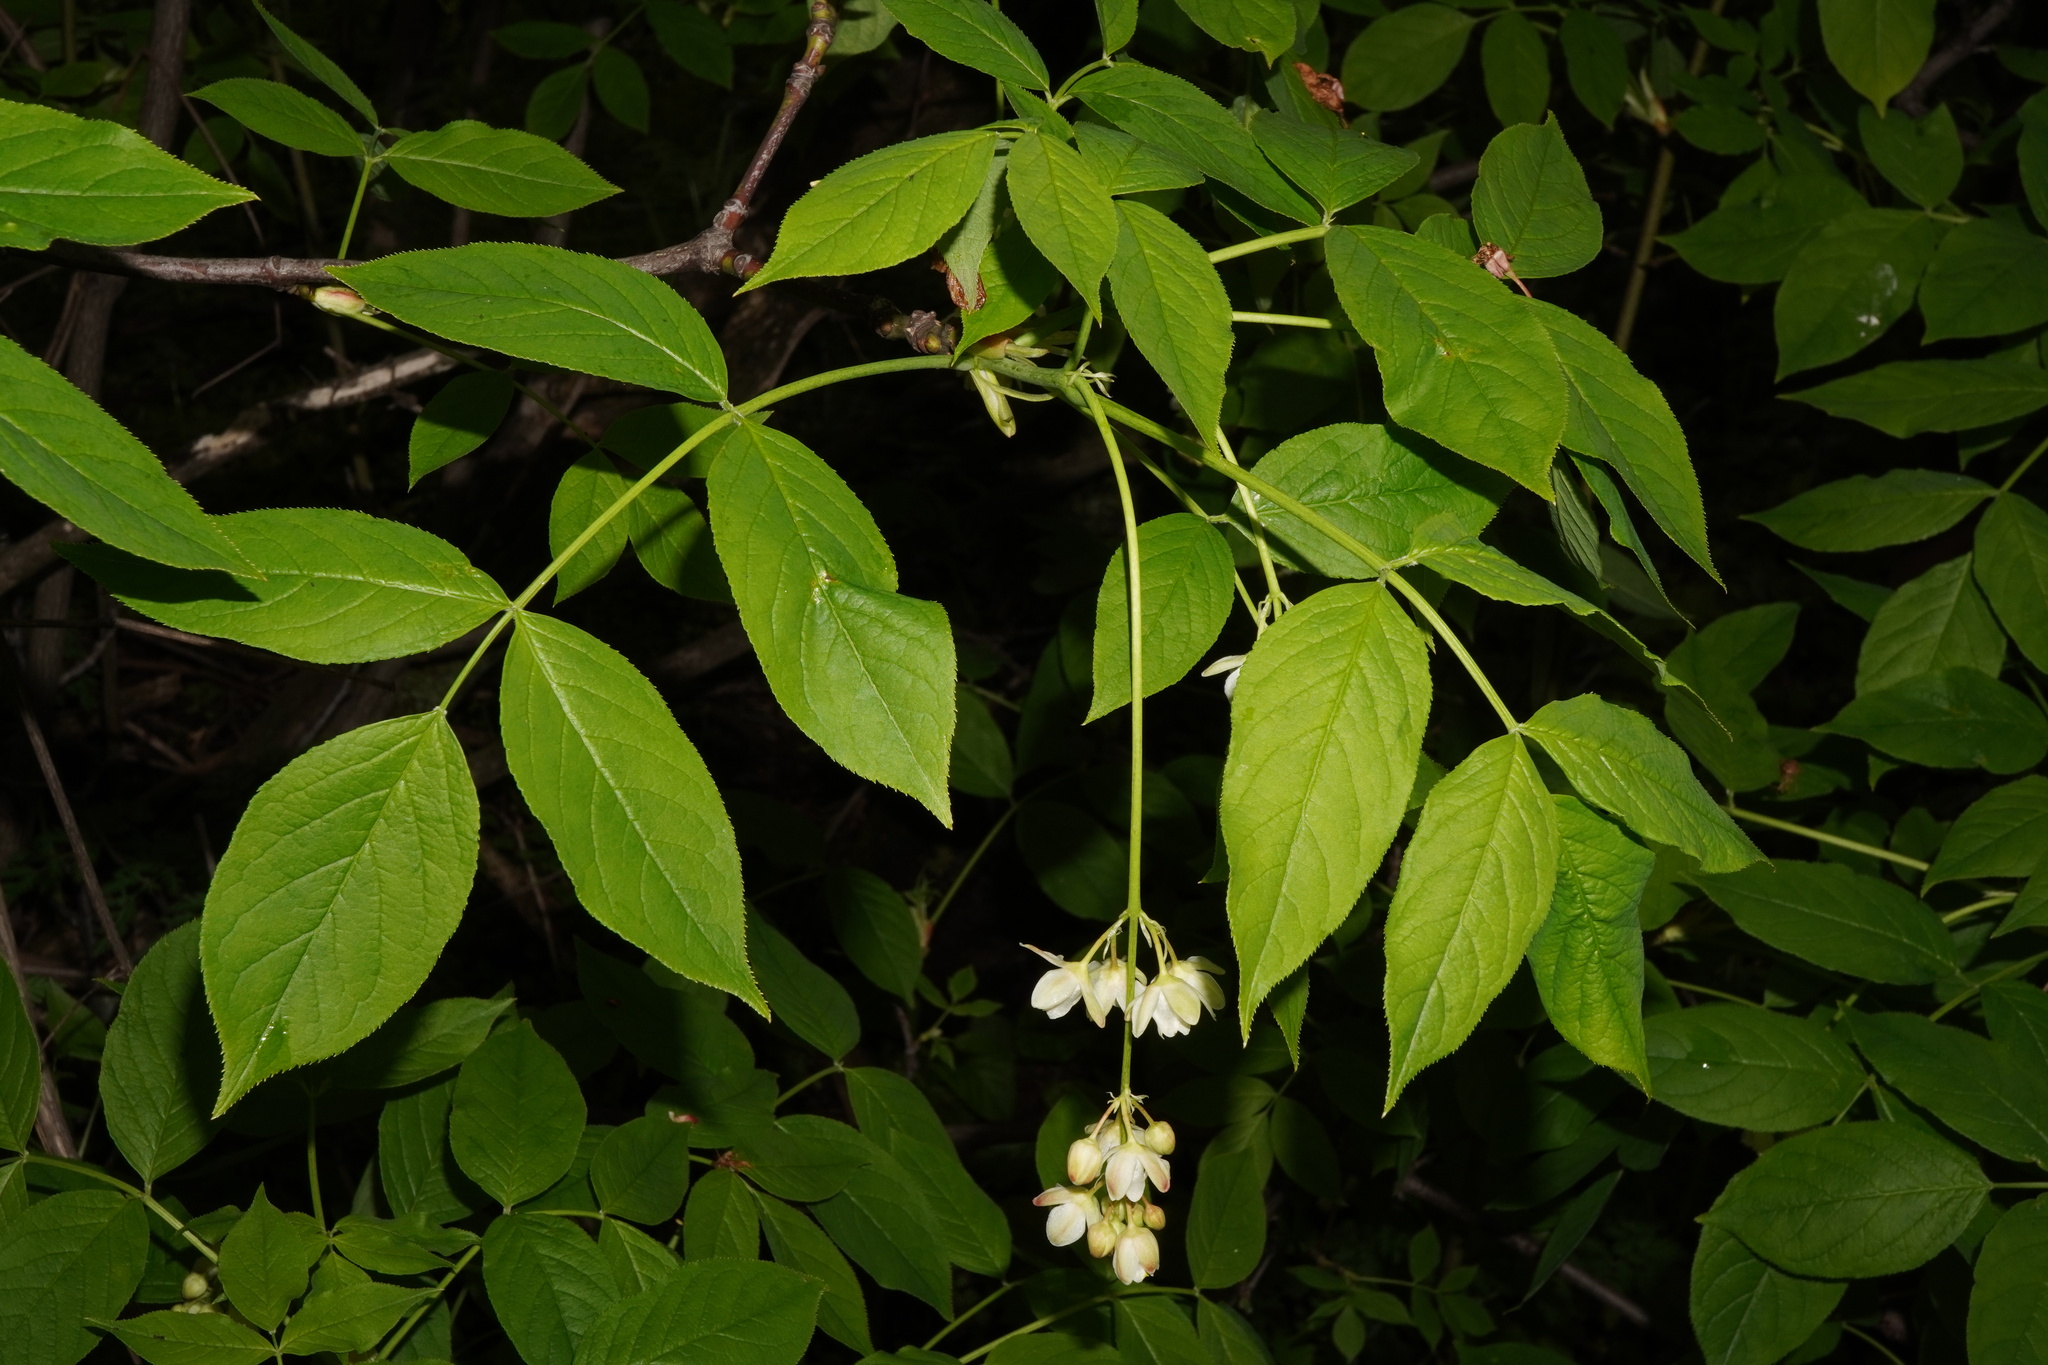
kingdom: Plantae
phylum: Tracheophyta
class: Magnoliopsida
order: Crossosomatales
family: Staphyleaceae
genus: Staphylea
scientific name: Staphylea pinnata
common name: Bladdernut
